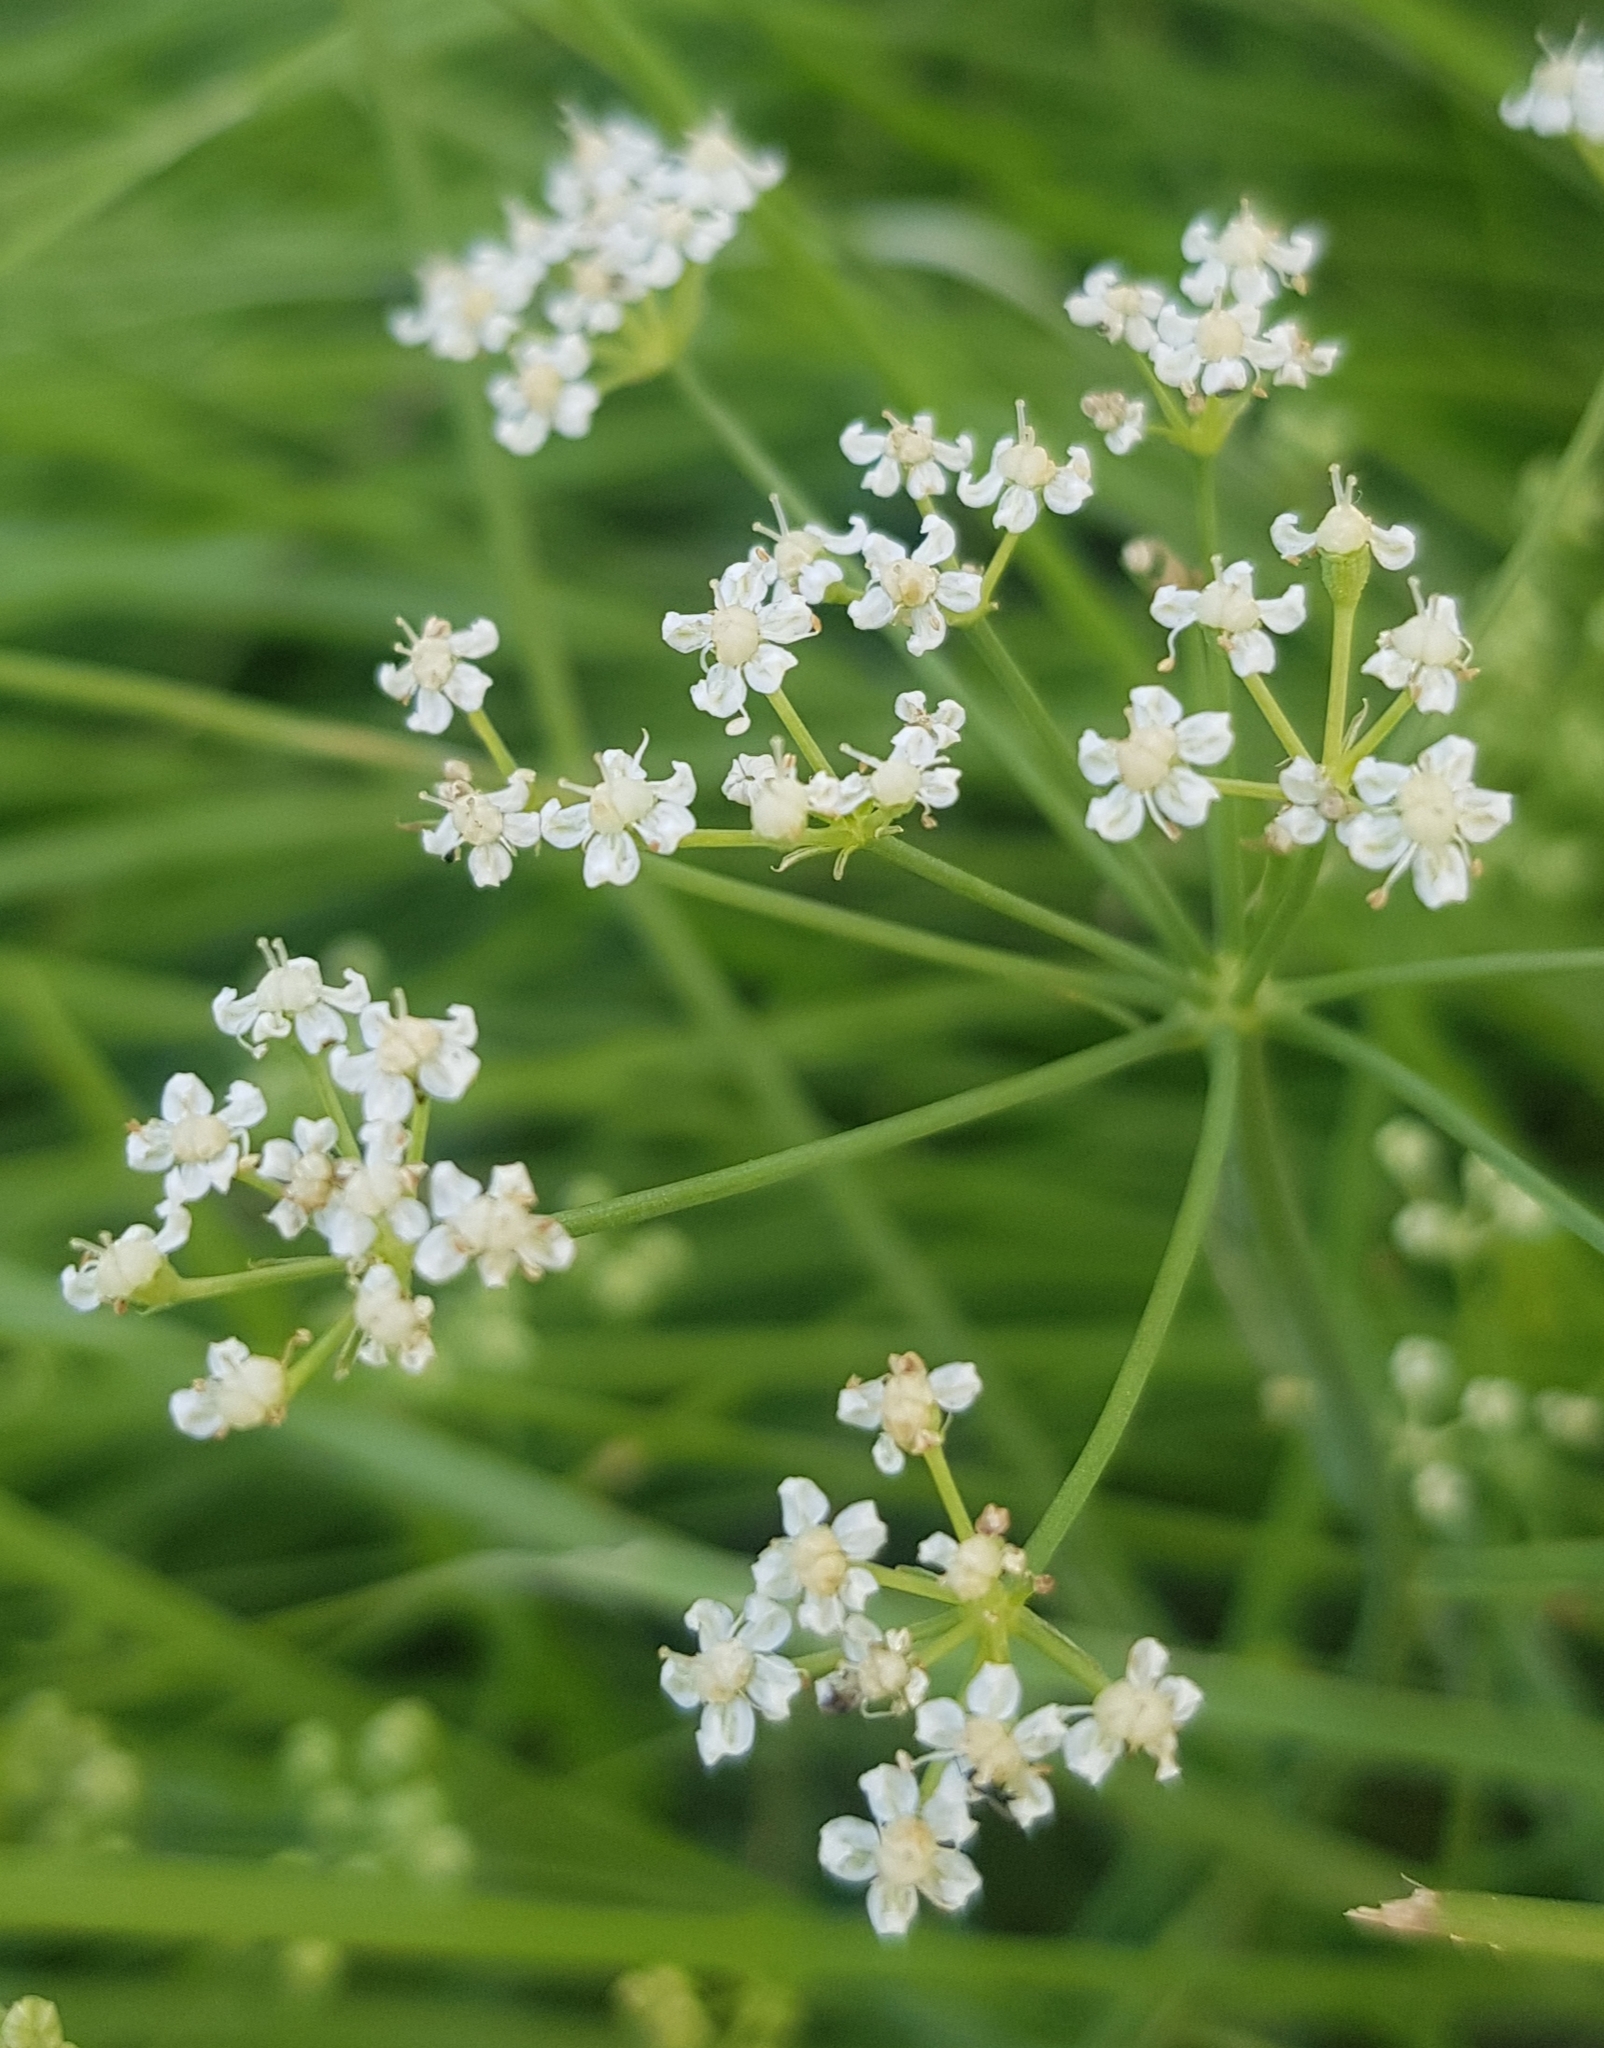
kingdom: Plantae
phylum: Tracheophyta
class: Magnoliopsida
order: Apiales
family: Apiaceae
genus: Saposhnikovia
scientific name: Saposhnikovia divaricata
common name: Siler
